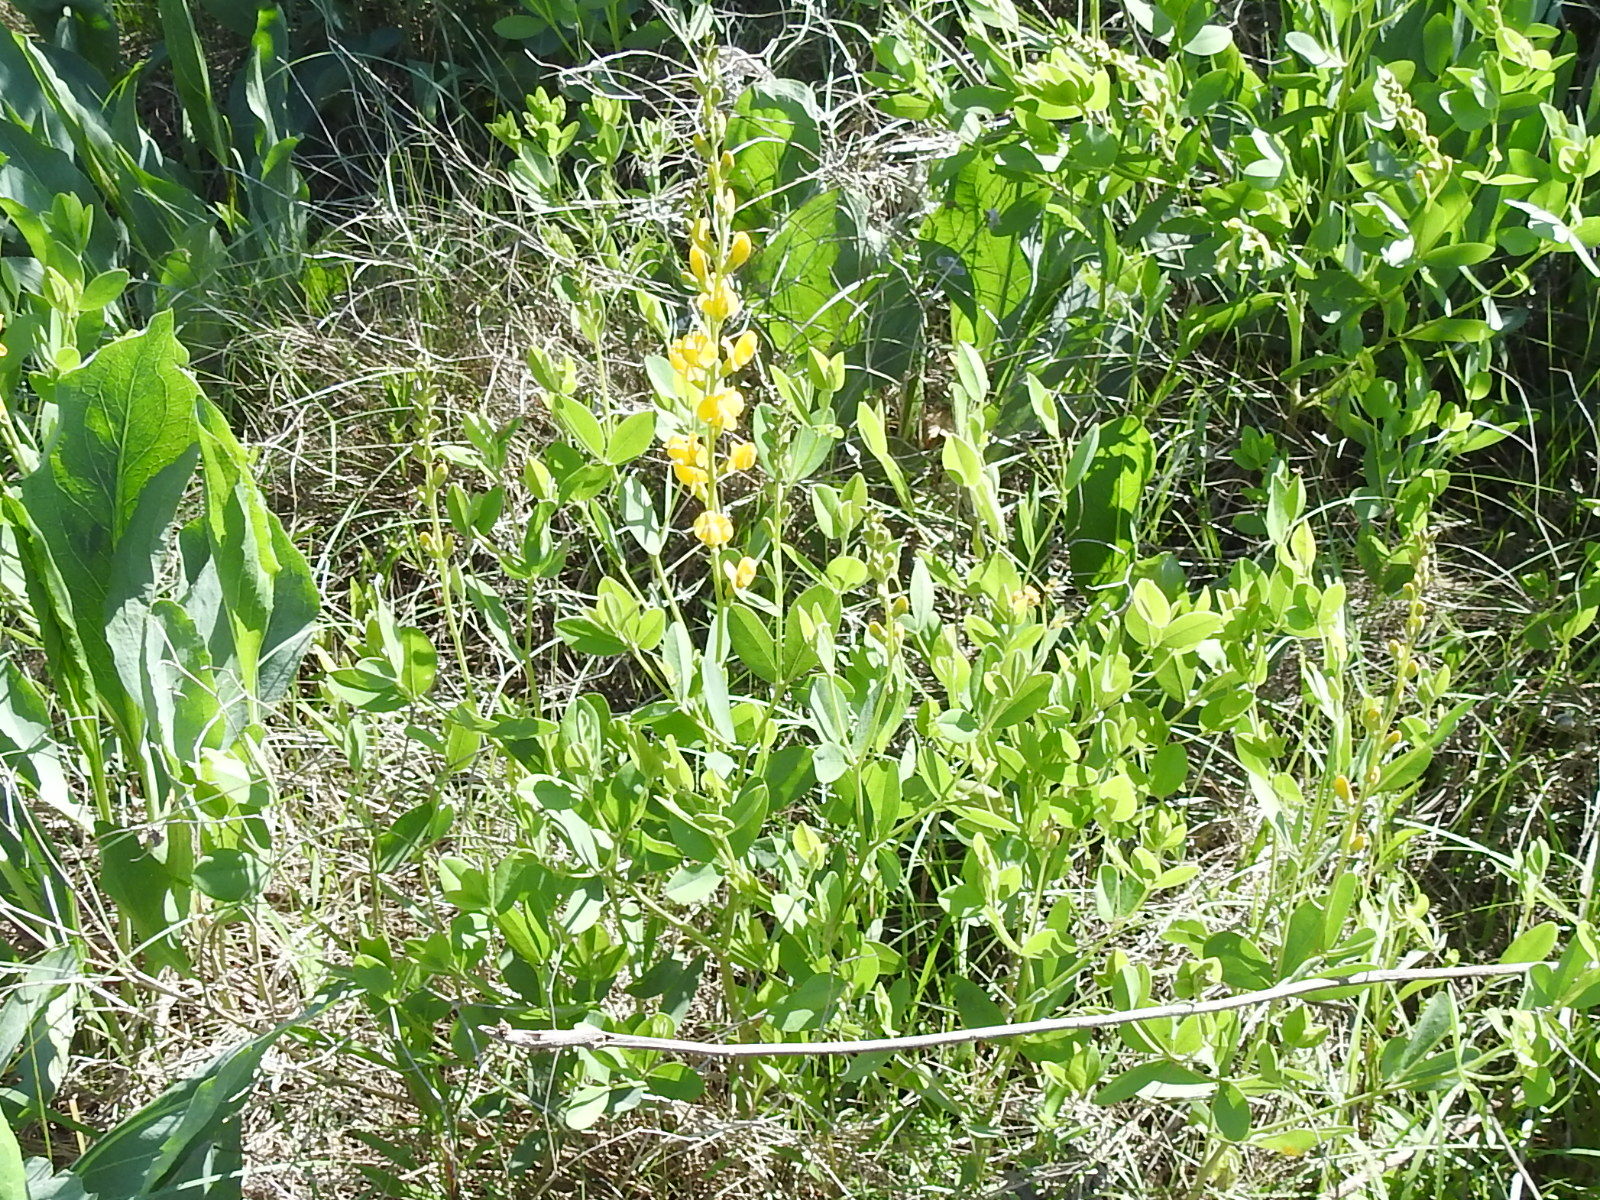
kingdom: Plantae
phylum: Tracheophyta
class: Magnoliopsida
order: Fabales
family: Fabaceae
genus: Baptisia
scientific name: Baptisia sphaerocarpa
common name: Round wild indigo
